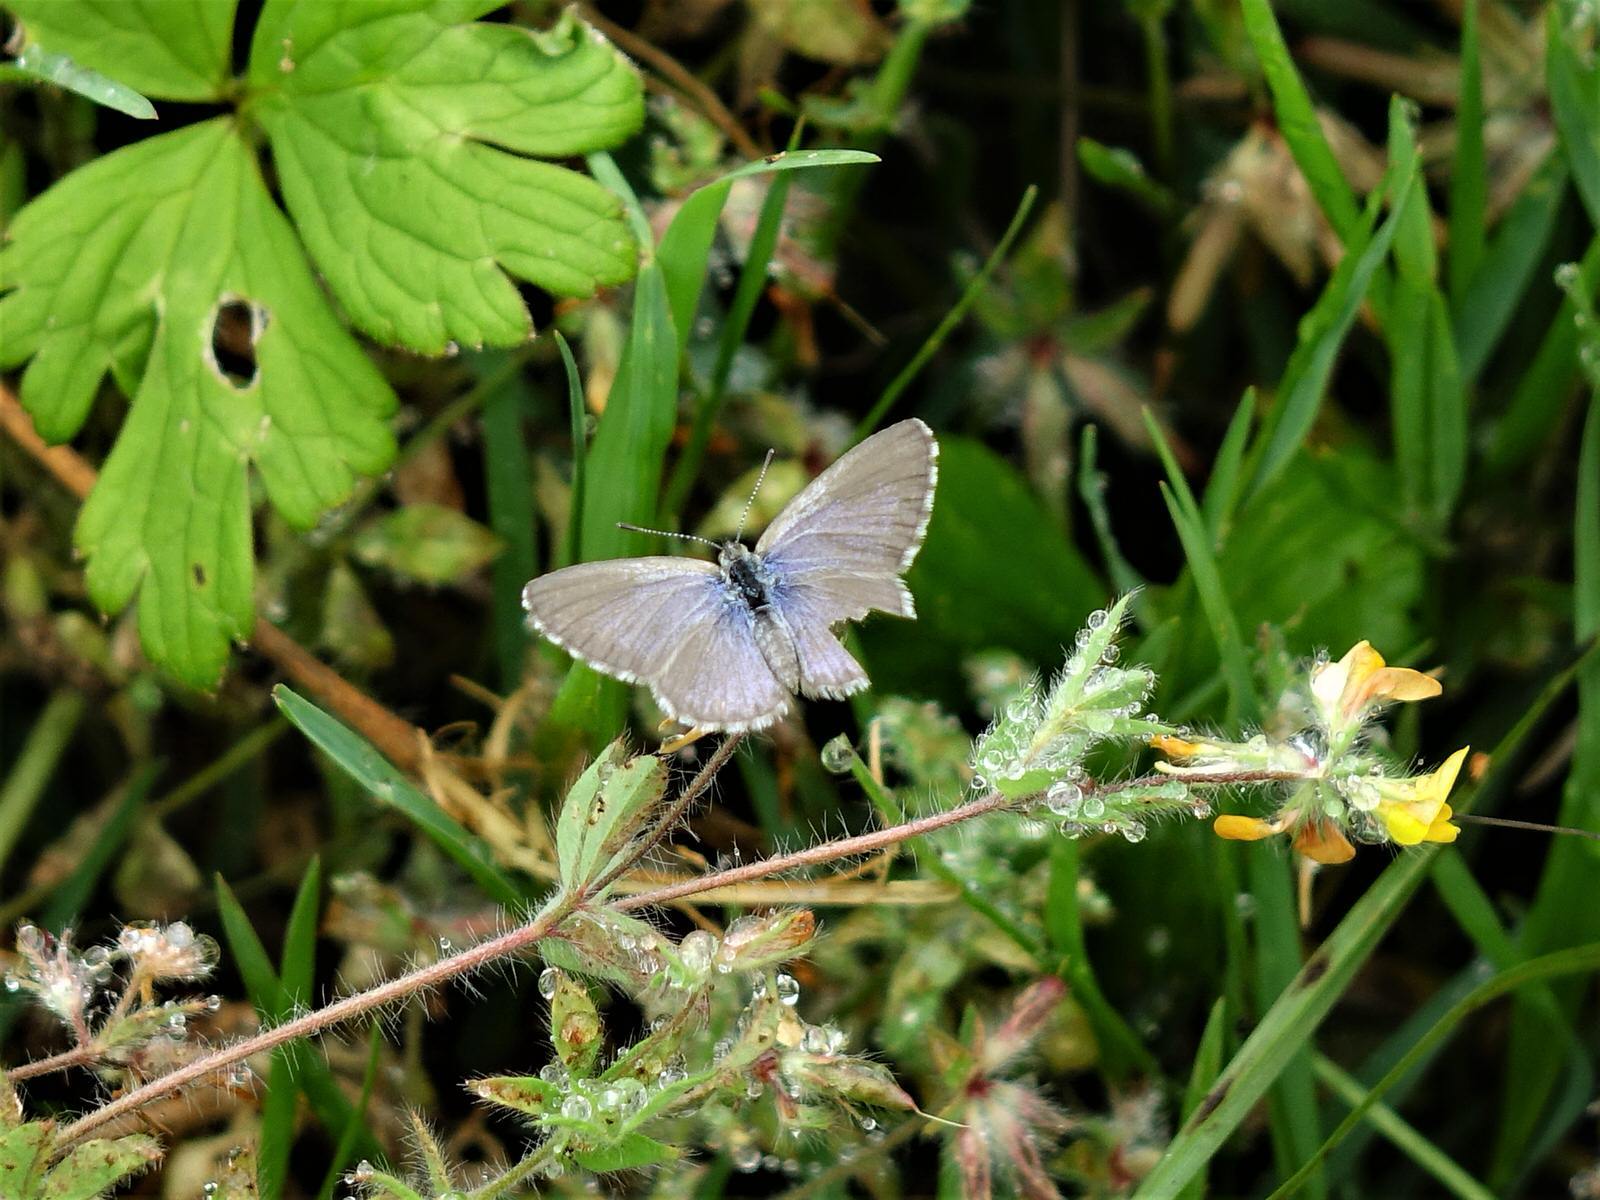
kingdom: Animalia
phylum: Arthropoda
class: Insecta
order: Lepidoptera
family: Lycaenidae
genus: Zizina
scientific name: Zizina labradus
